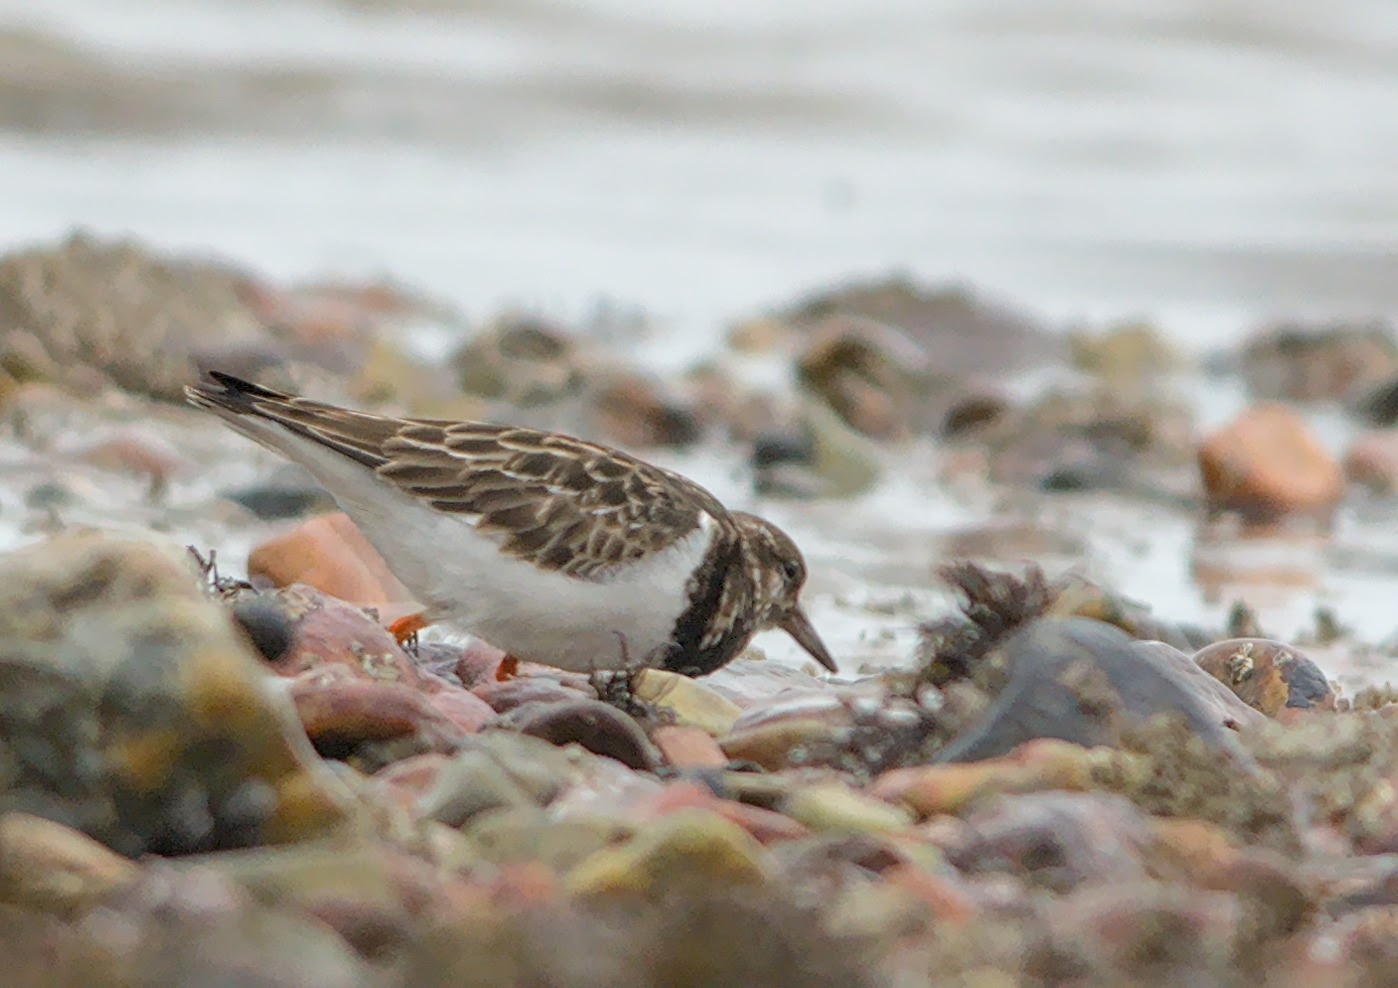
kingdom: Animalia
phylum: Chordata
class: Aves
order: Charadriiformes
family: Scolopacidae
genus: Arenaria
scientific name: Arenaria interpres
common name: Ruddy turnstone
